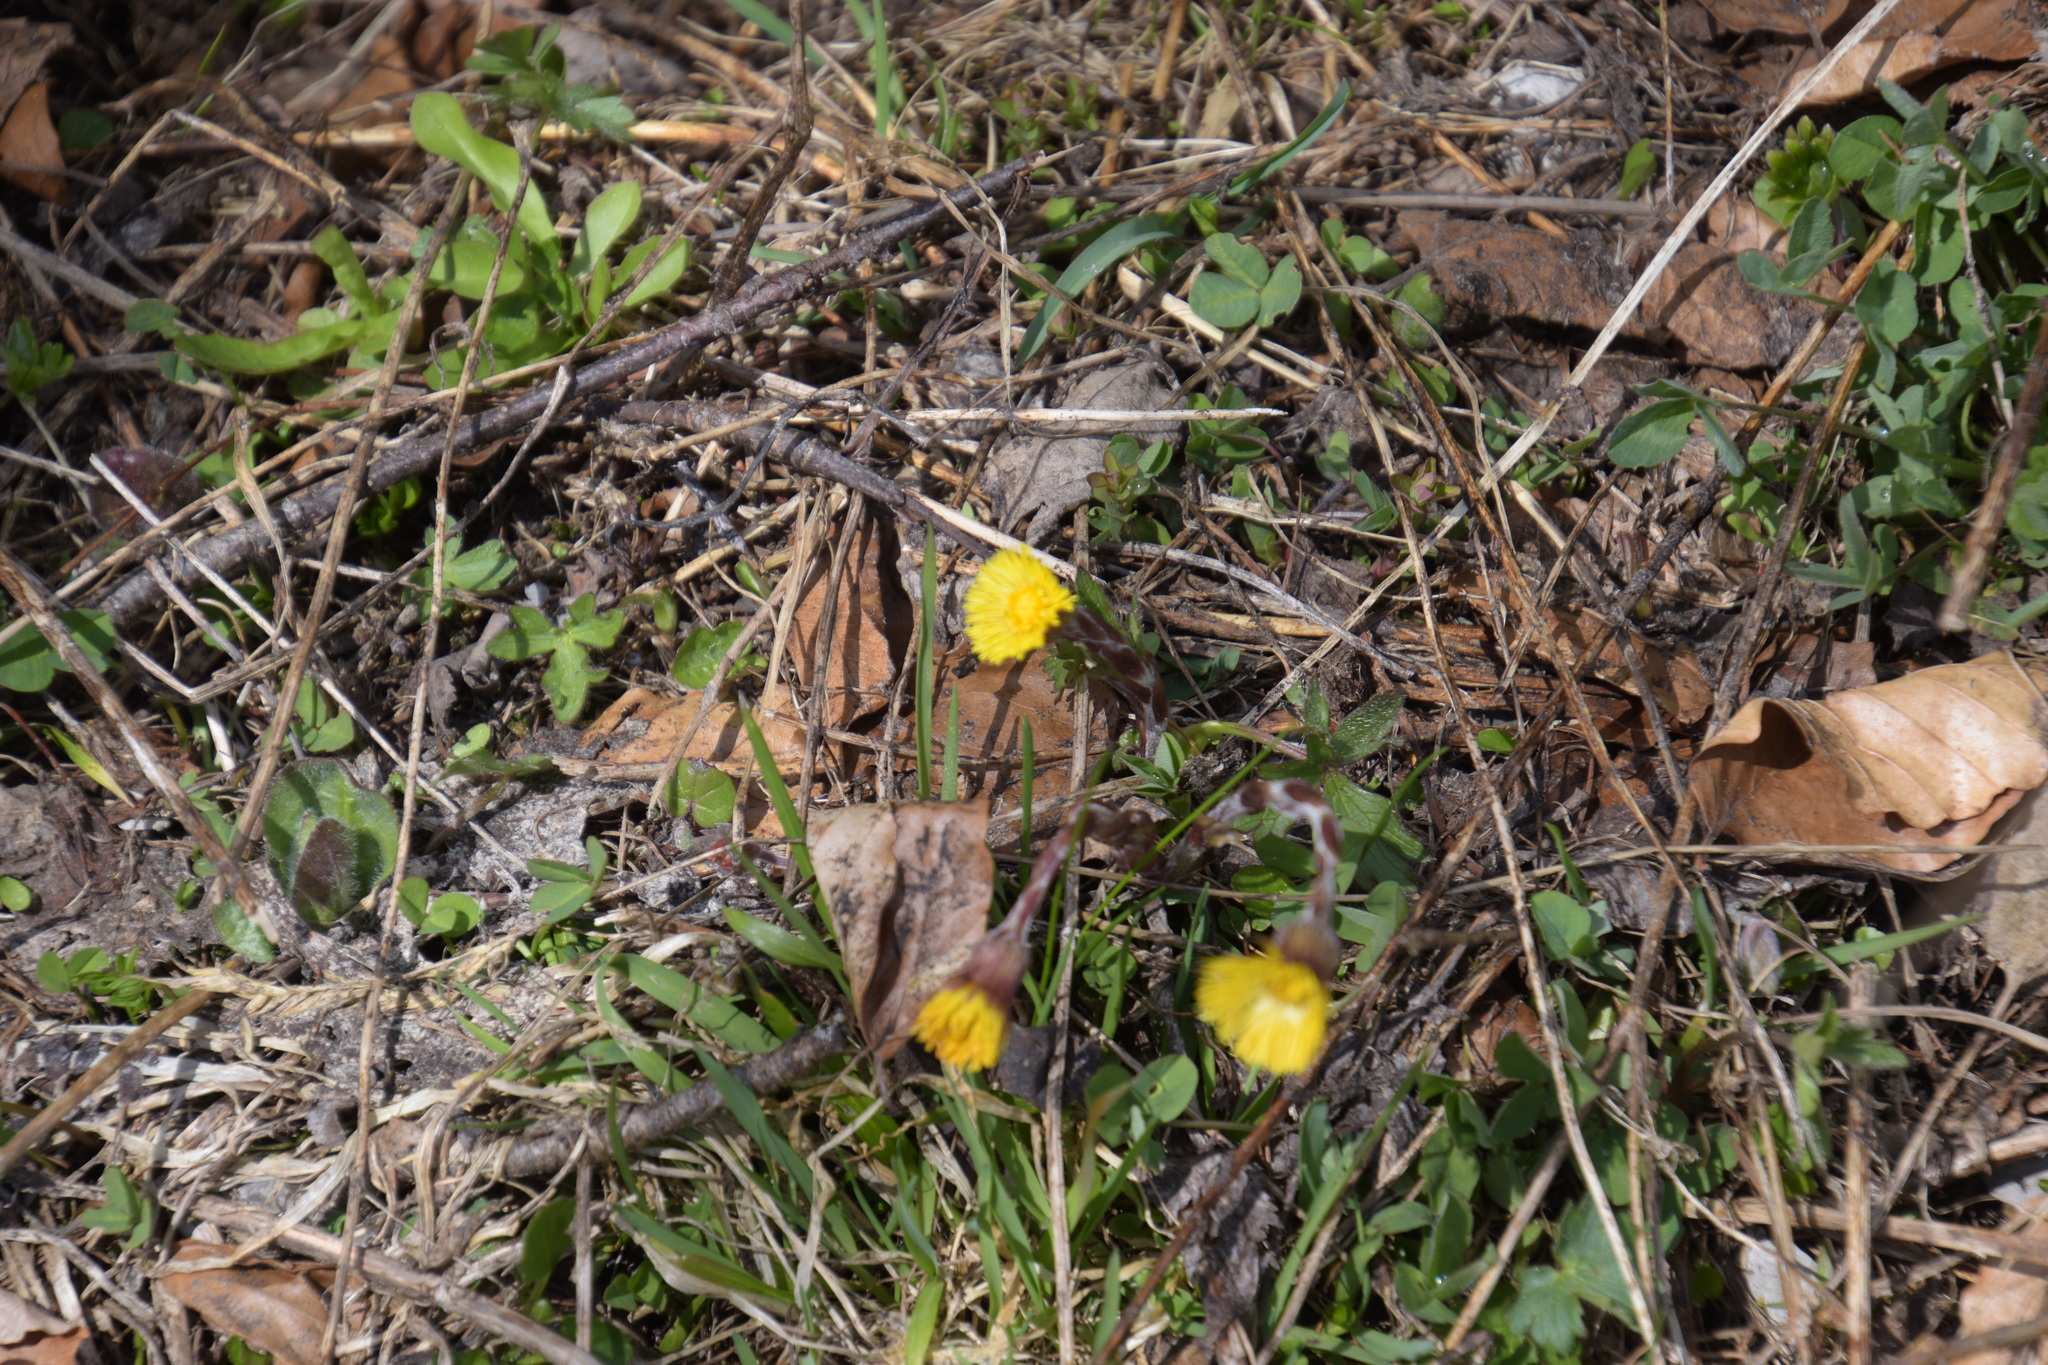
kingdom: Plantae
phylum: Tracheophyta
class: Magnoliopsida
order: Asterales
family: Asteraceae
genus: Tussilago
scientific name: Tussilago farfara
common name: Coltsfoot
